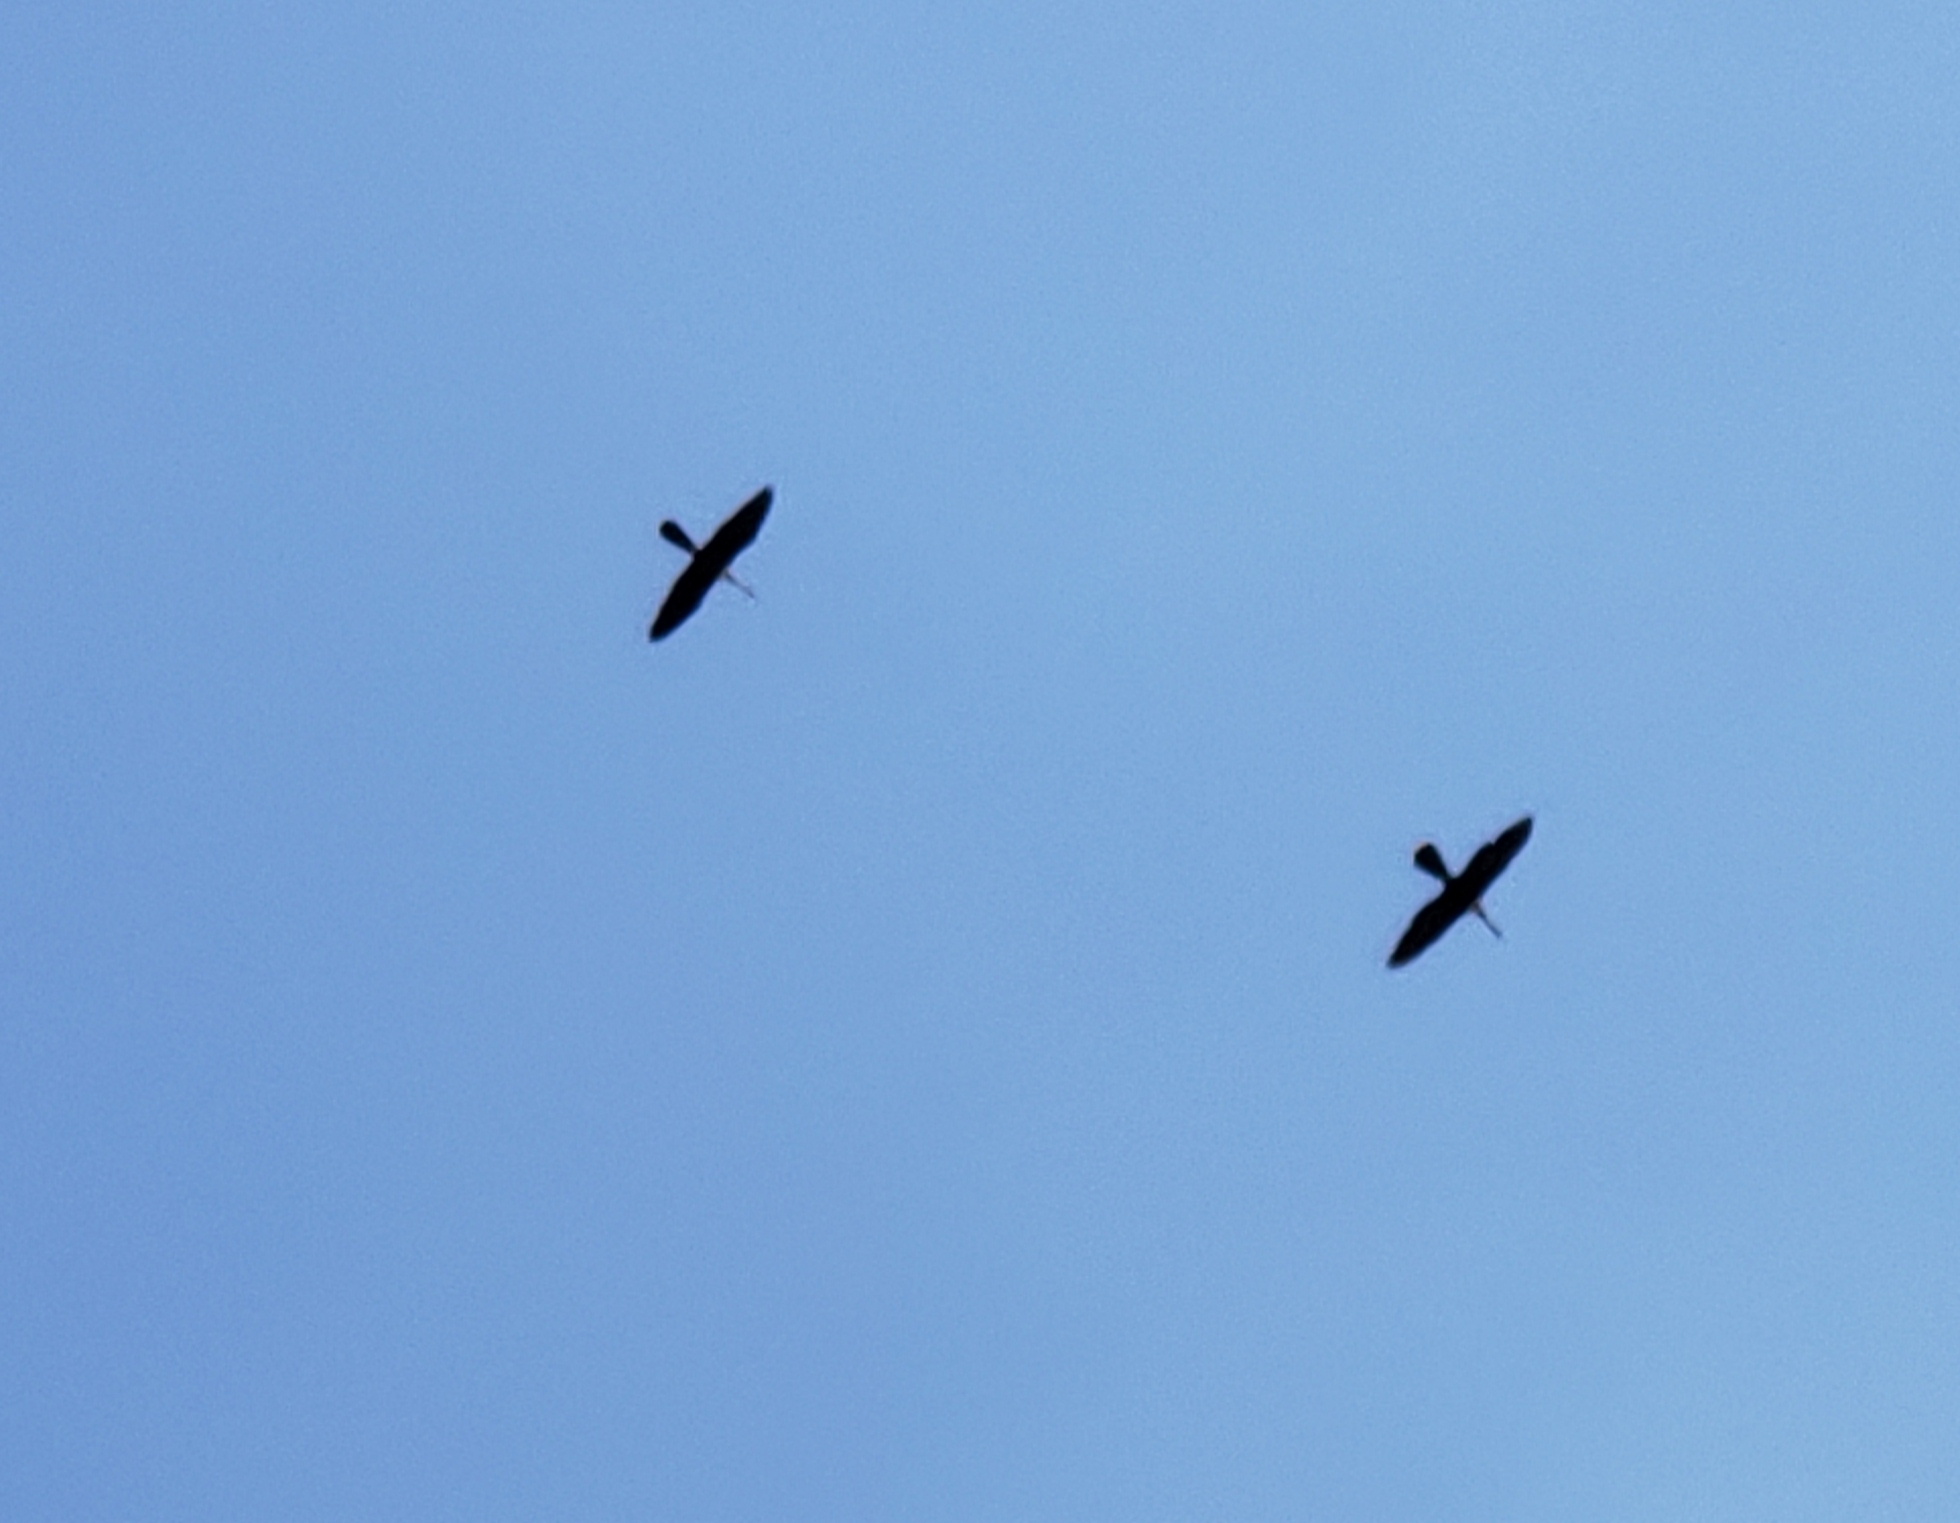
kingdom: Animalia
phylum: Chordata
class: Aves
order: Suliformes
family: Anhingidae
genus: Anhinga
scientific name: Anhinga anhinga
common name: Anhinga
